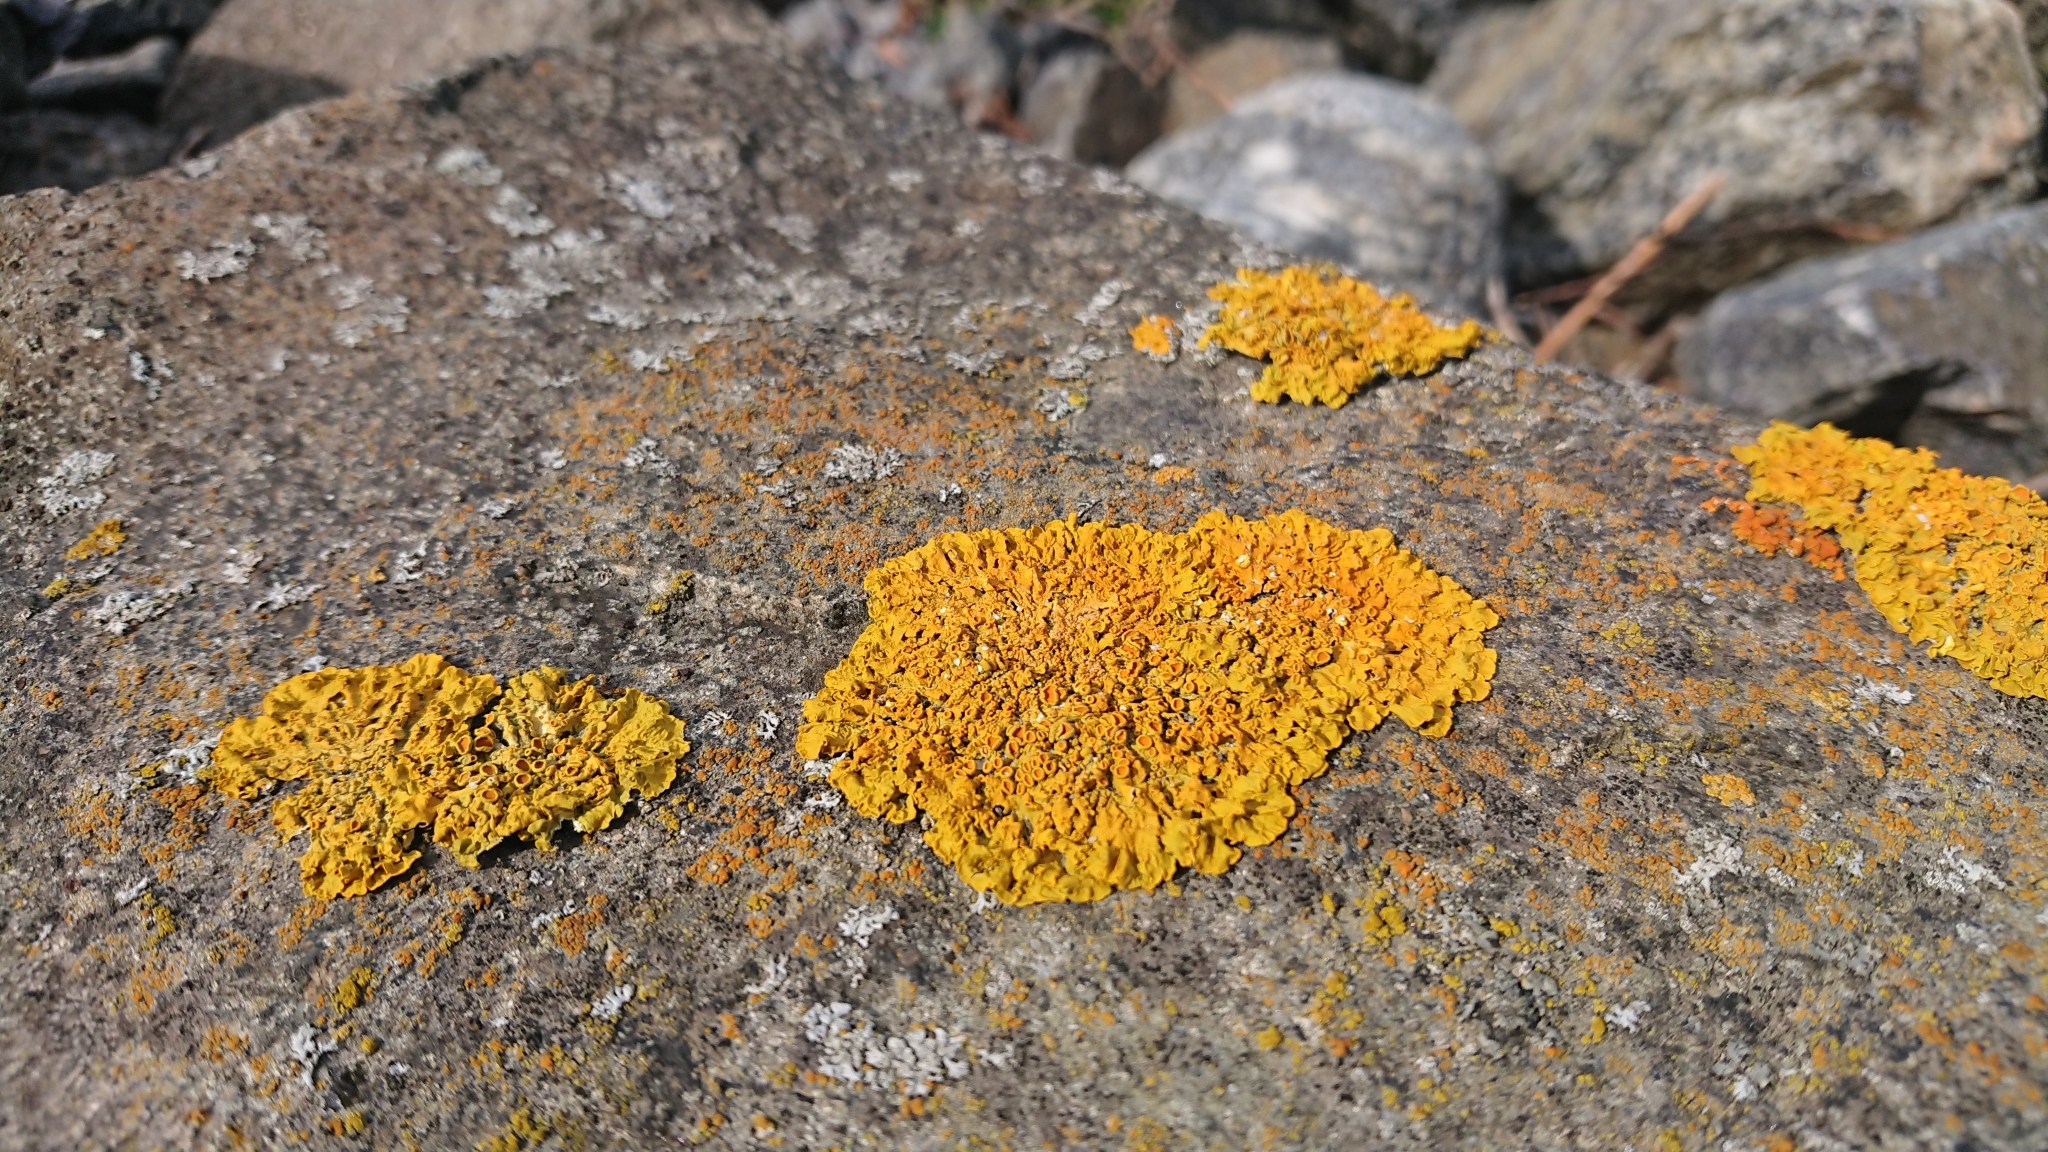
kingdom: Fungi
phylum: Ascomycota
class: Lecanoromycetes
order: Teloschistales
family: Teloschistaceae
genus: Xanthoria
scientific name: Xanthoria parietina
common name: Common orange lichen
